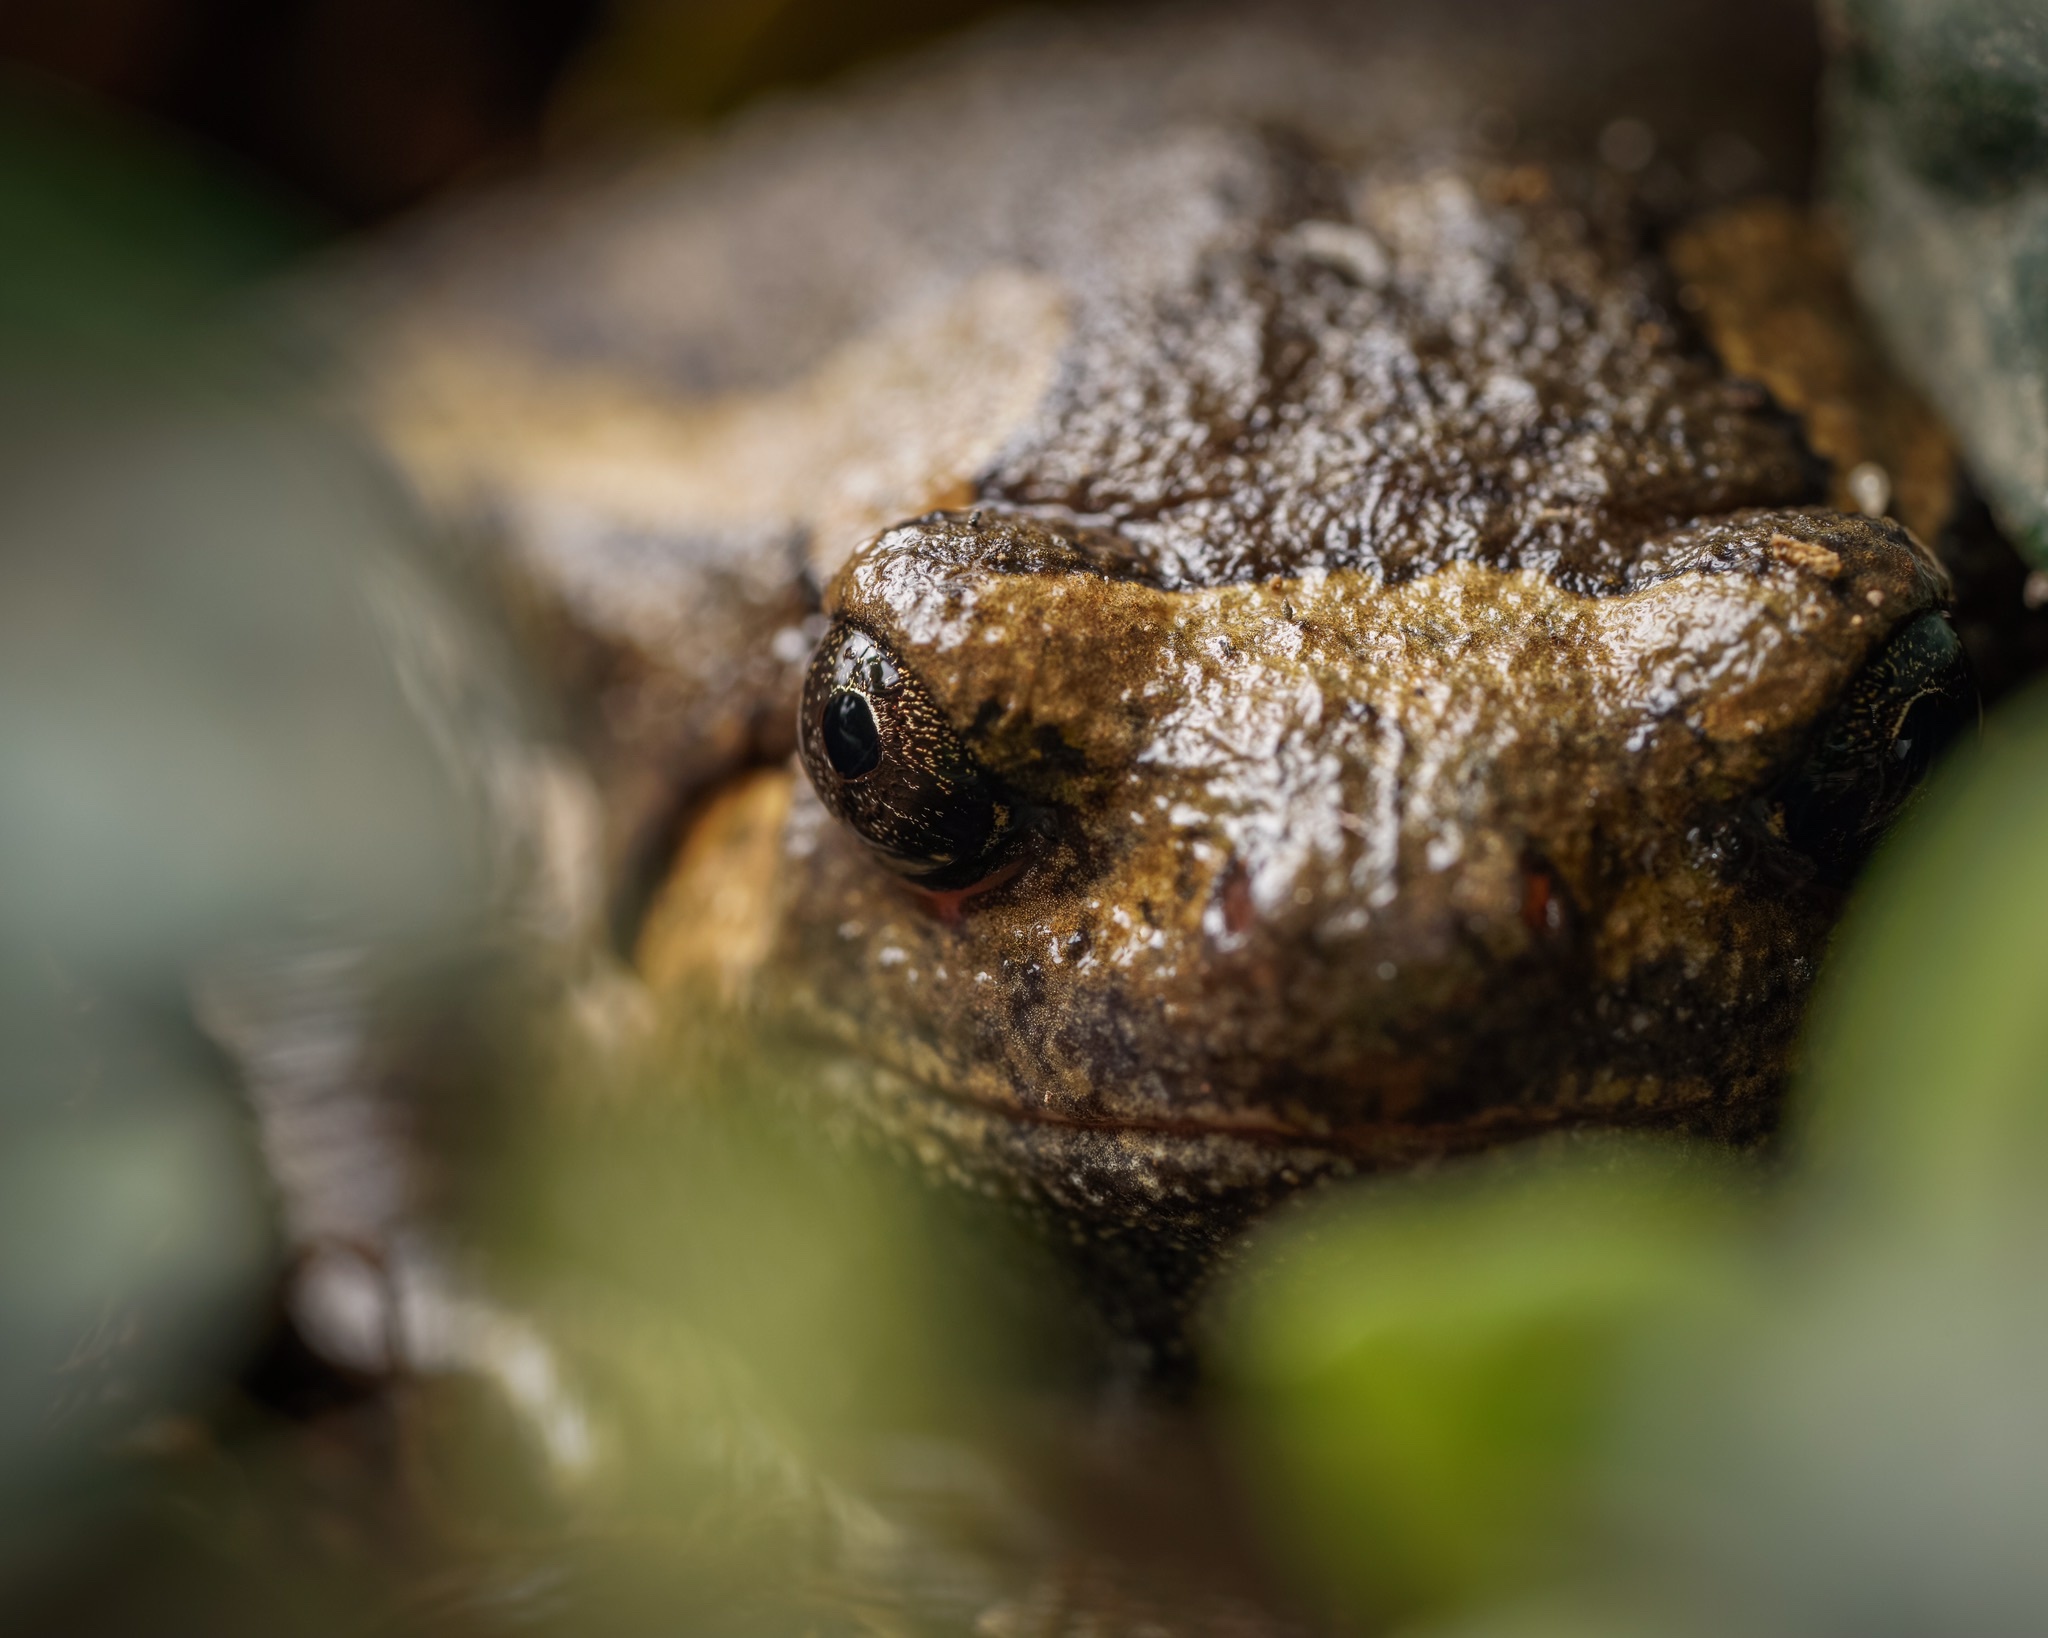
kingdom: Animalia
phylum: Chordata
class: Amphibia
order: Anura
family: Microhylidae
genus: Kaloula
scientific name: Kaloula pulchra
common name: Common,banded bullfrog
